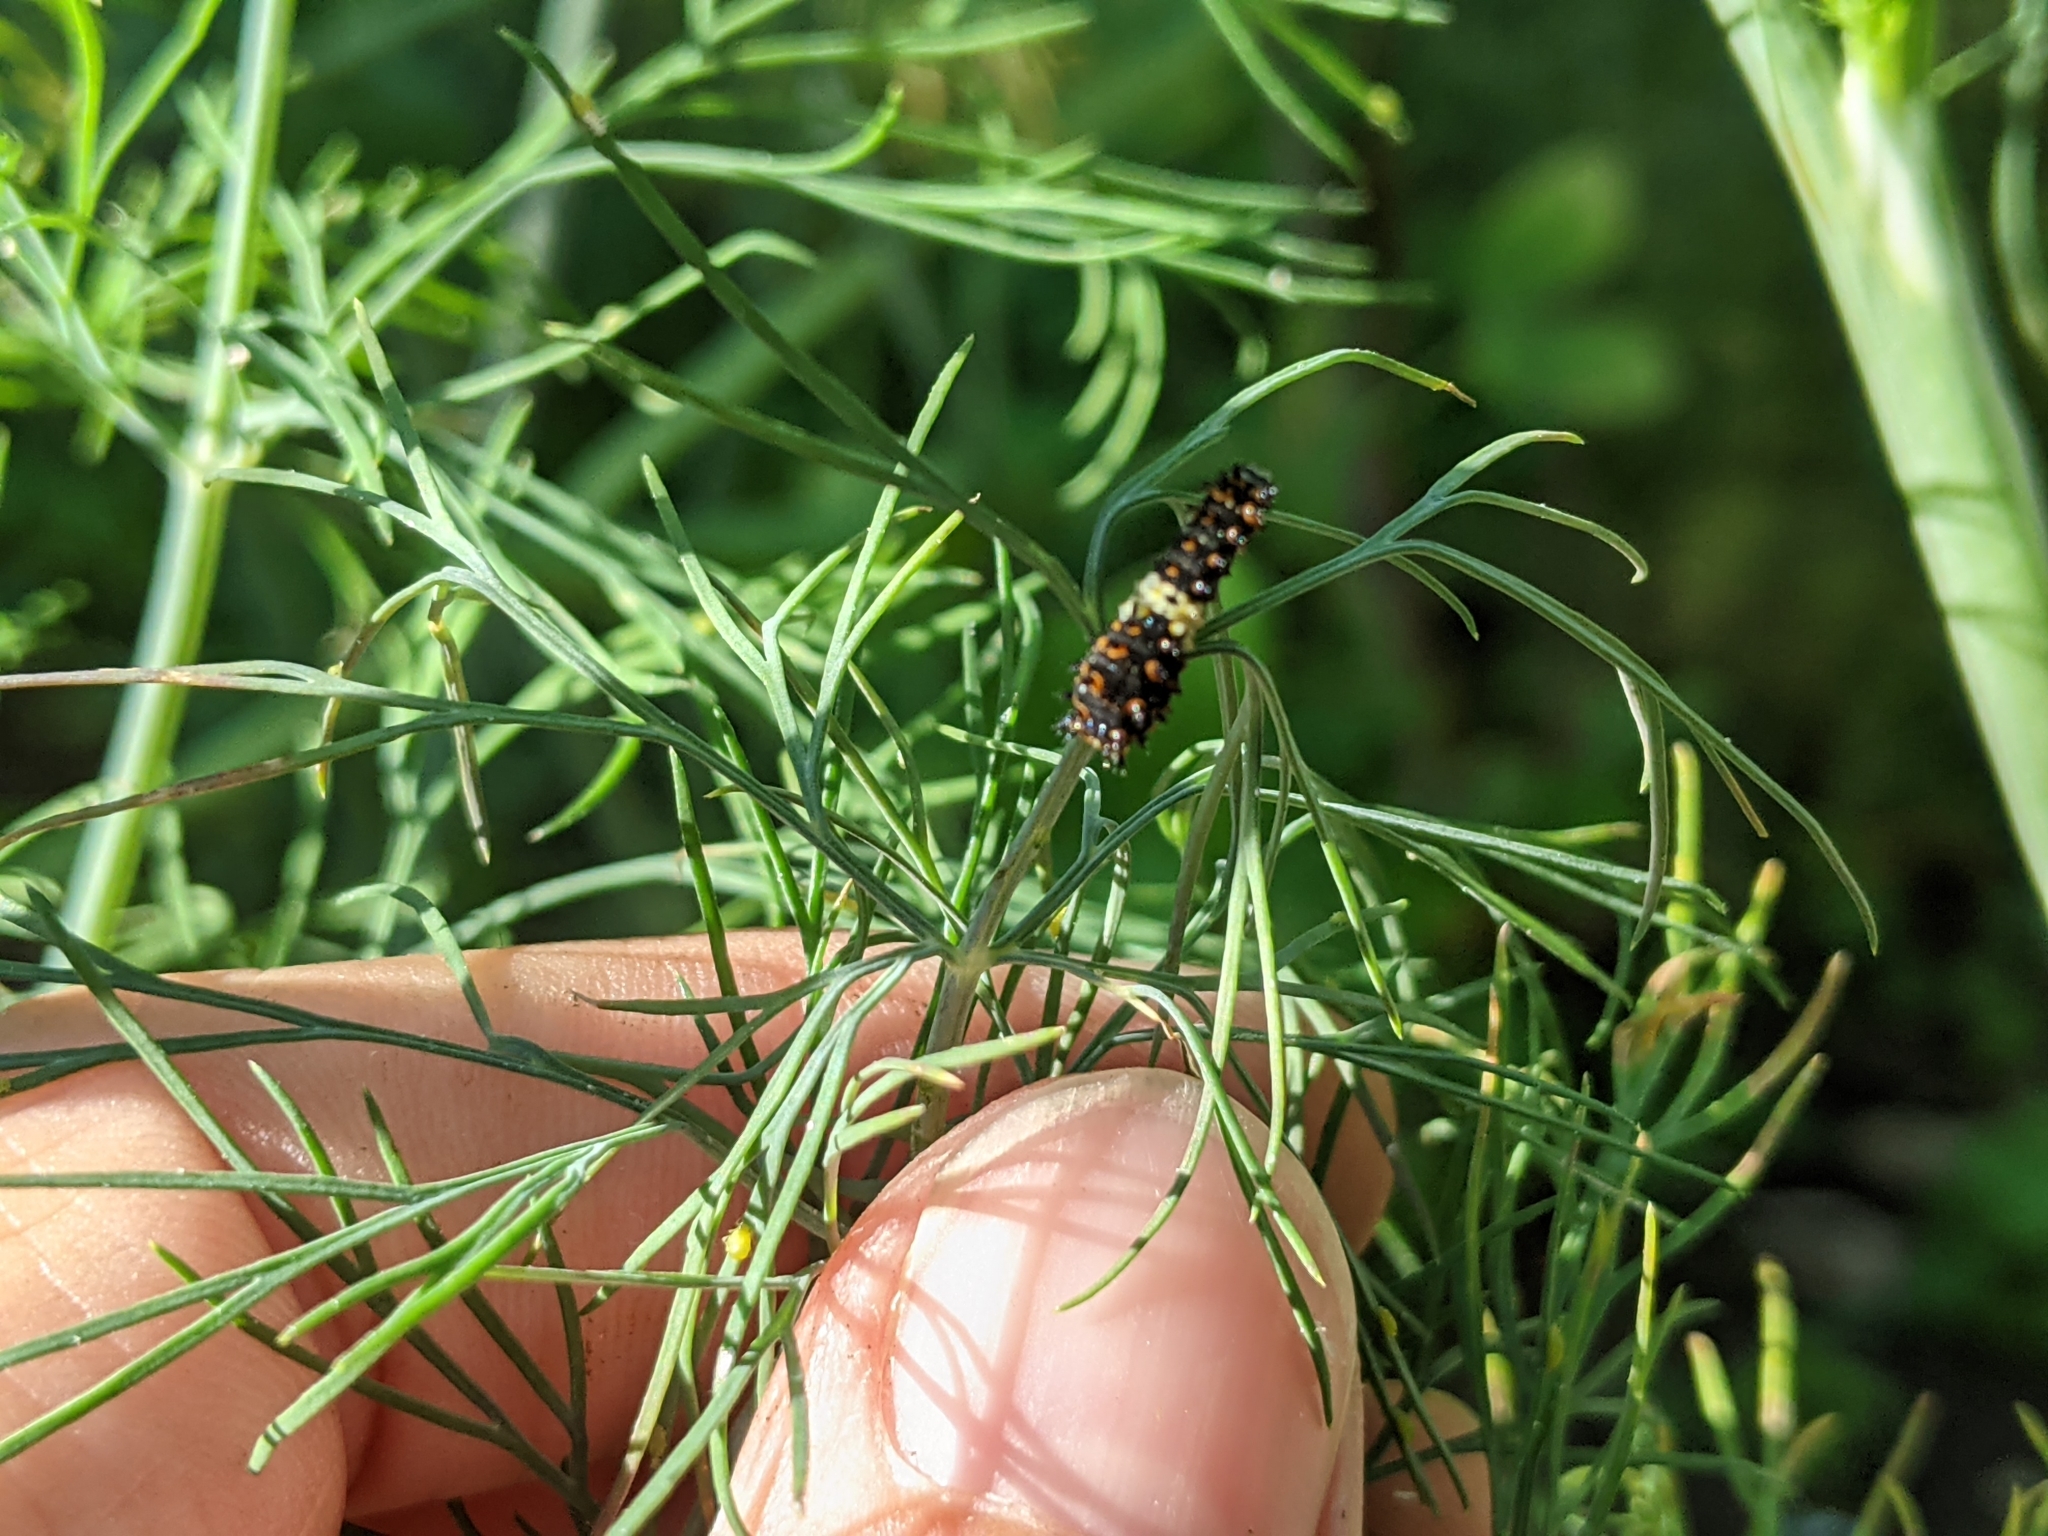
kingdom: Animalia
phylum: Arthropoda
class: Insecta
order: Lepidoptera
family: Papilionidae
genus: Papilio
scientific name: Papilio polyxenes
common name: Black swallowtail
